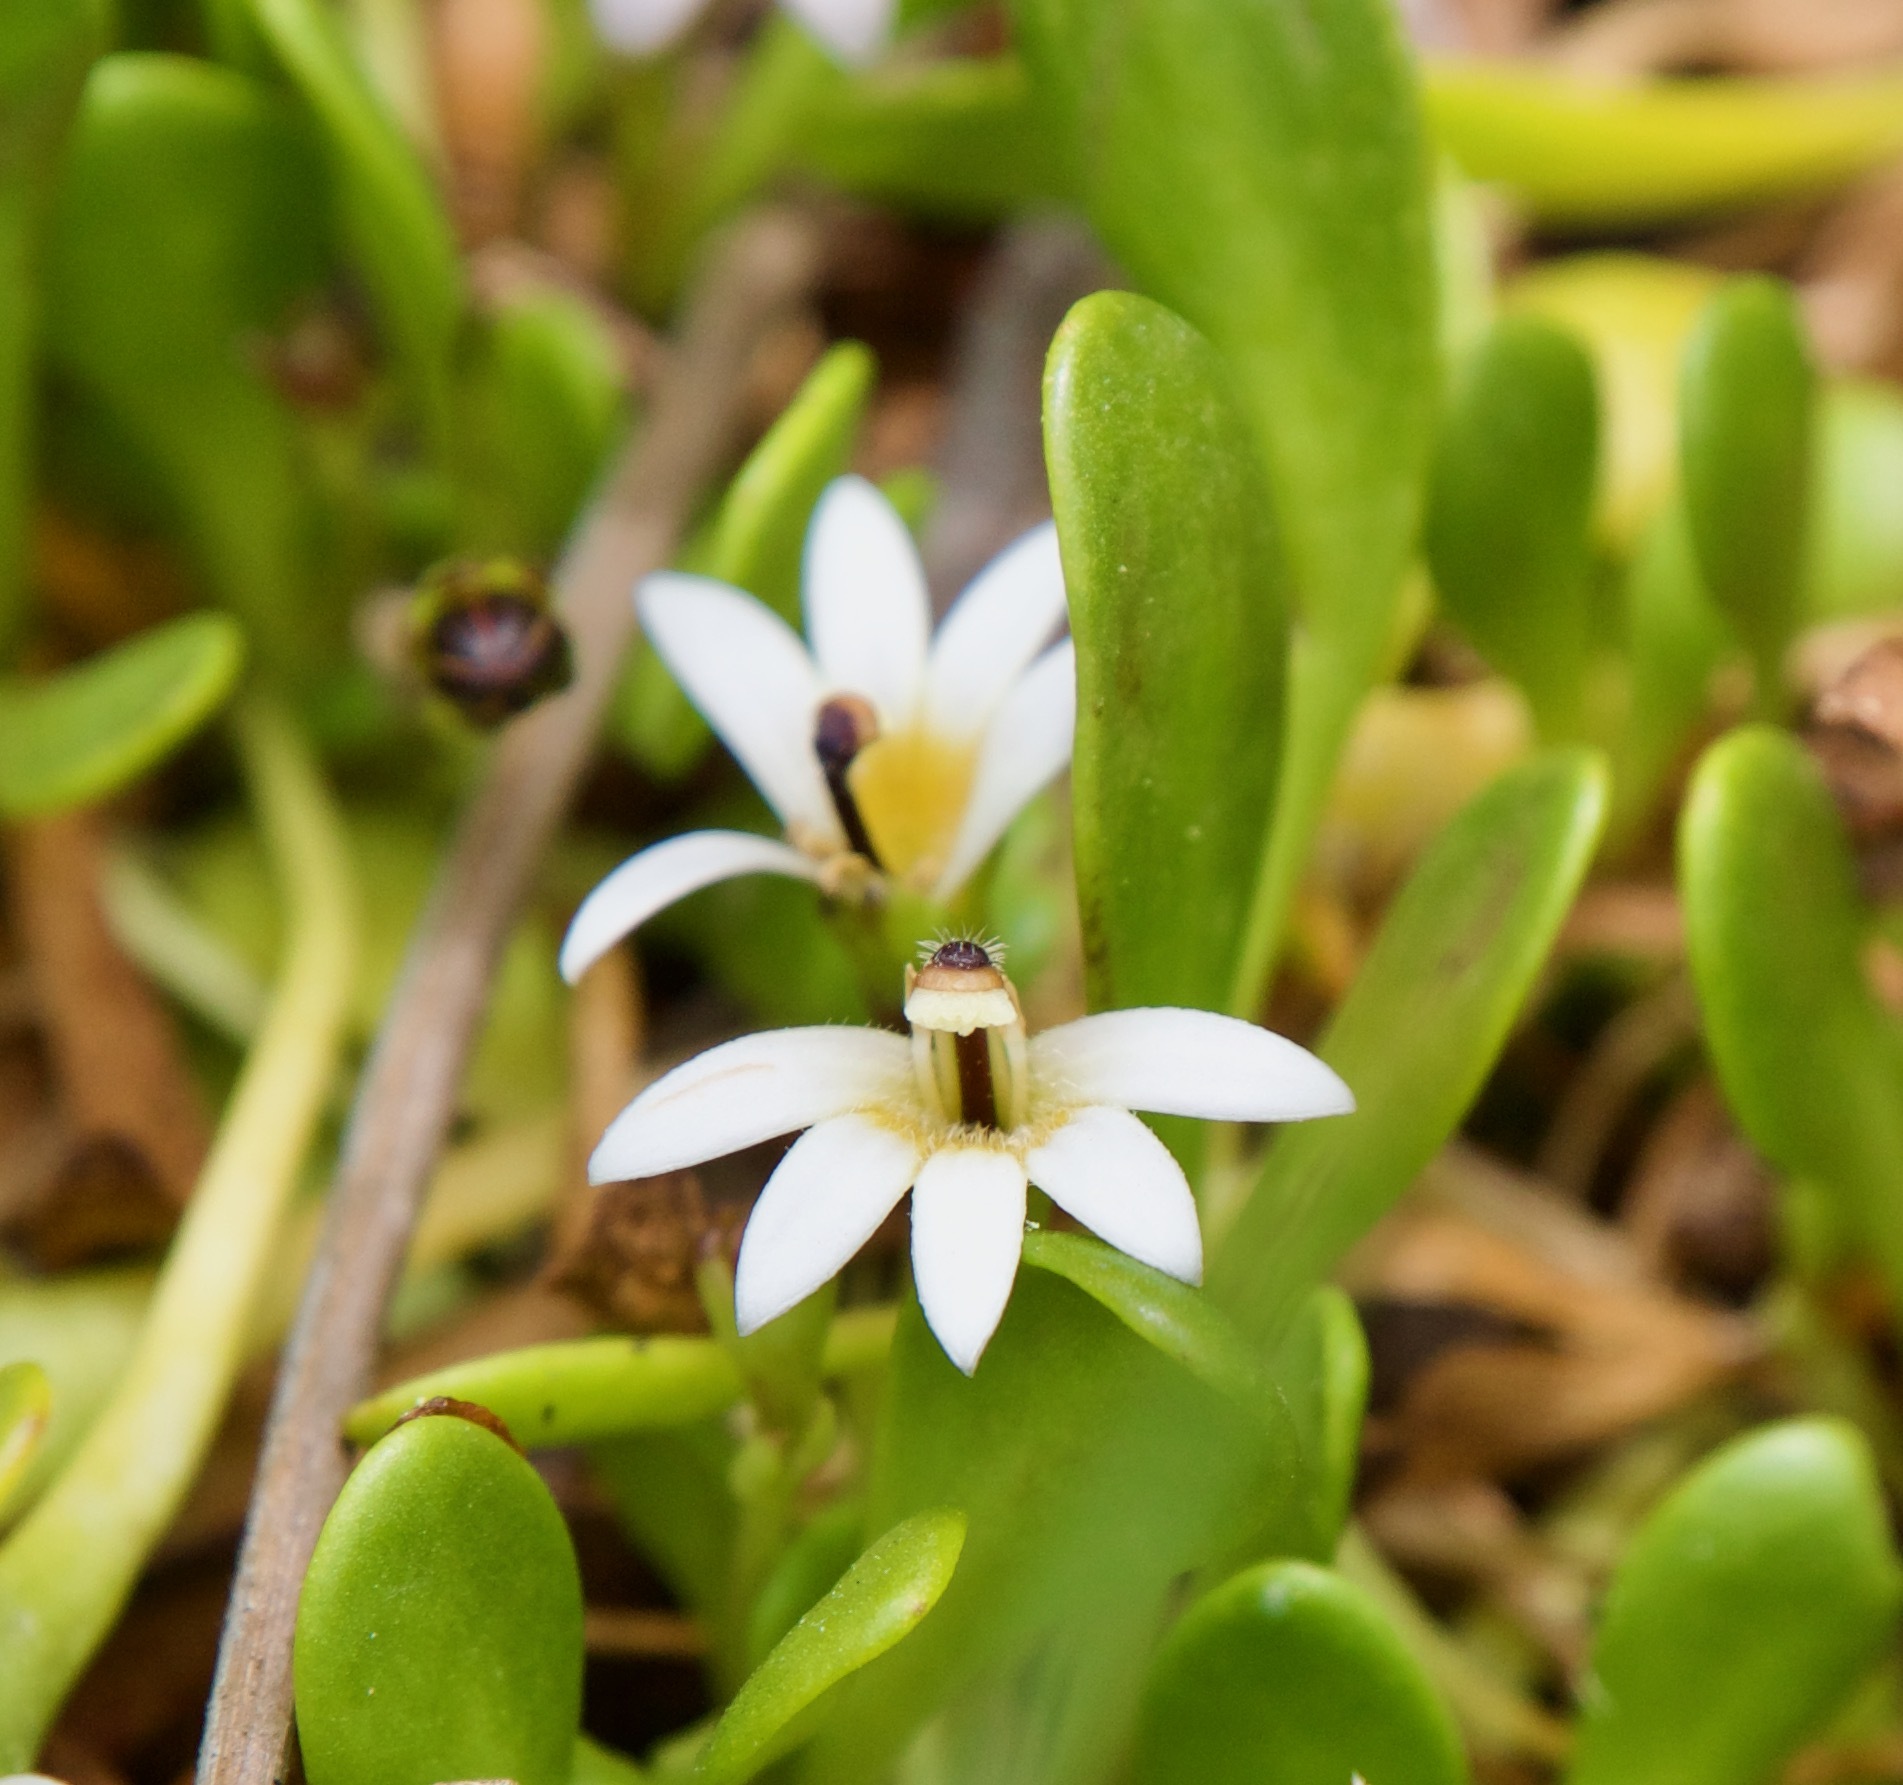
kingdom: Plantae
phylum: Tracheophyta
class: Magnoliopsida
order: Asterales
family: Goodeniaceae
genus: Goodenia
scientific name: Goodenia radicans
